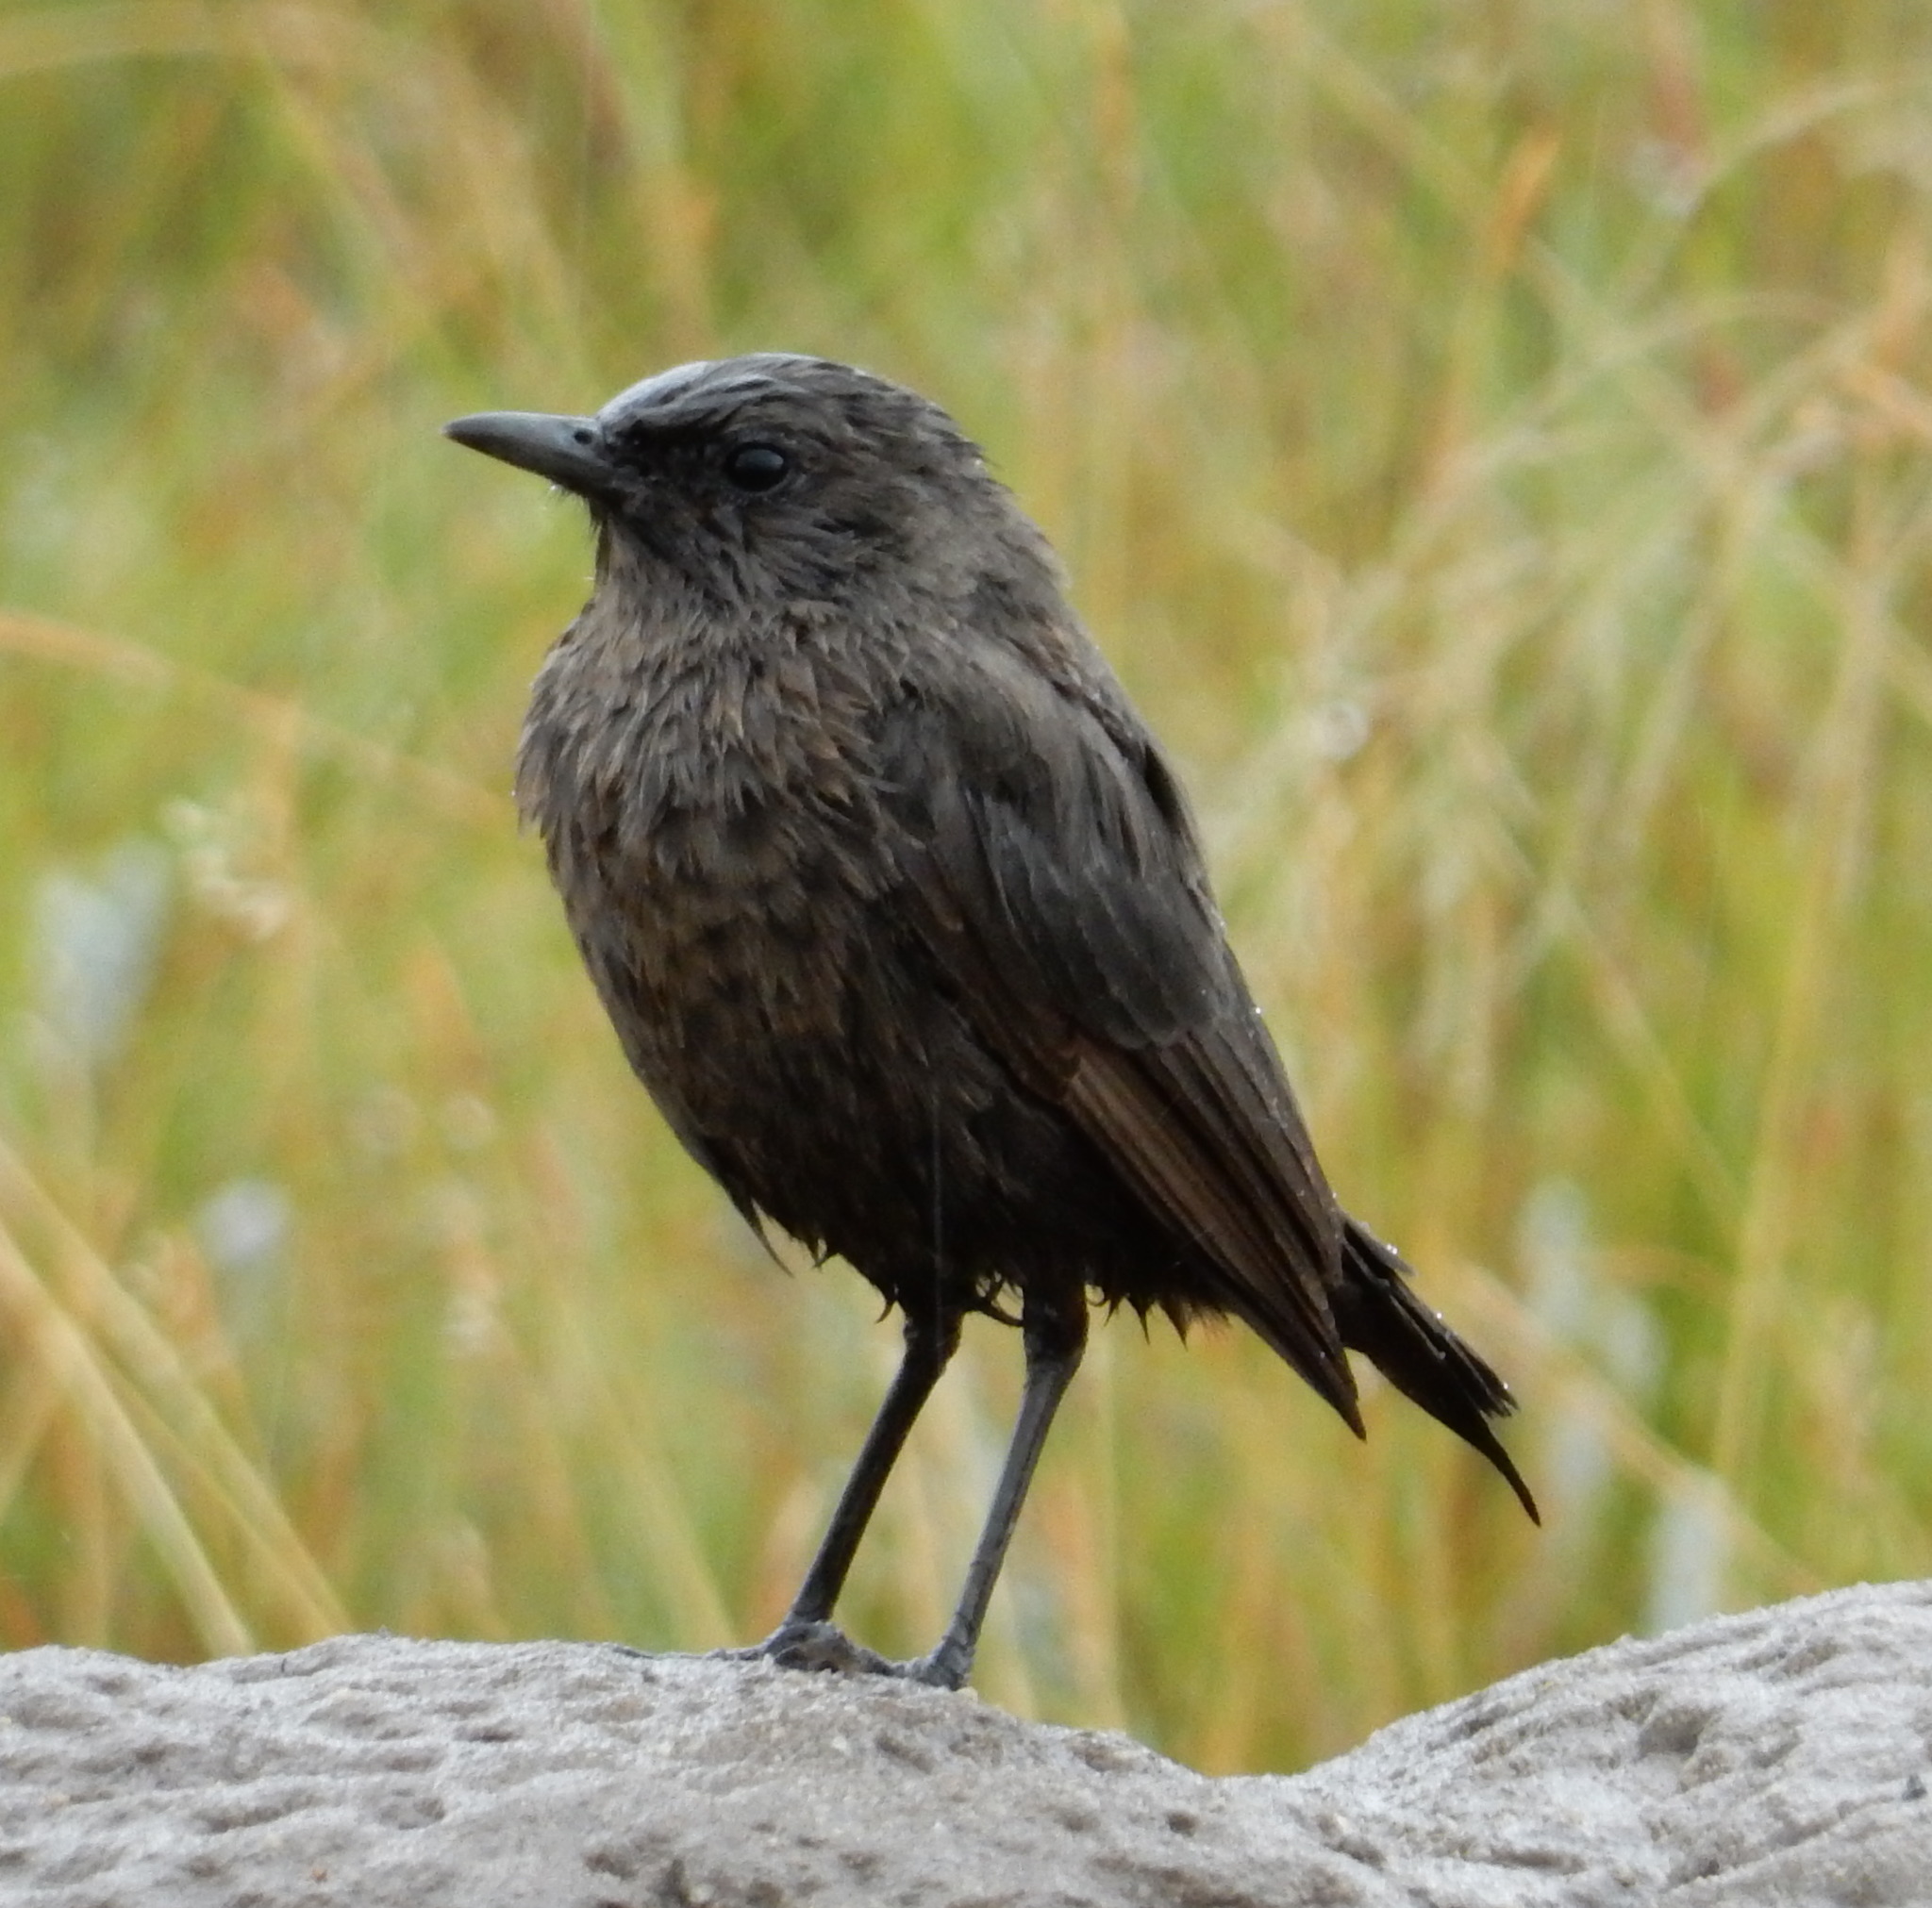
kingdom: Animalia
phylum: Chordata
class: Aves
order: Passeriformes
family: Muscicapidae
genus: Myrmecocichla
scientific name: Myrmecocichla formicivora
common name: Ant-eating chat
